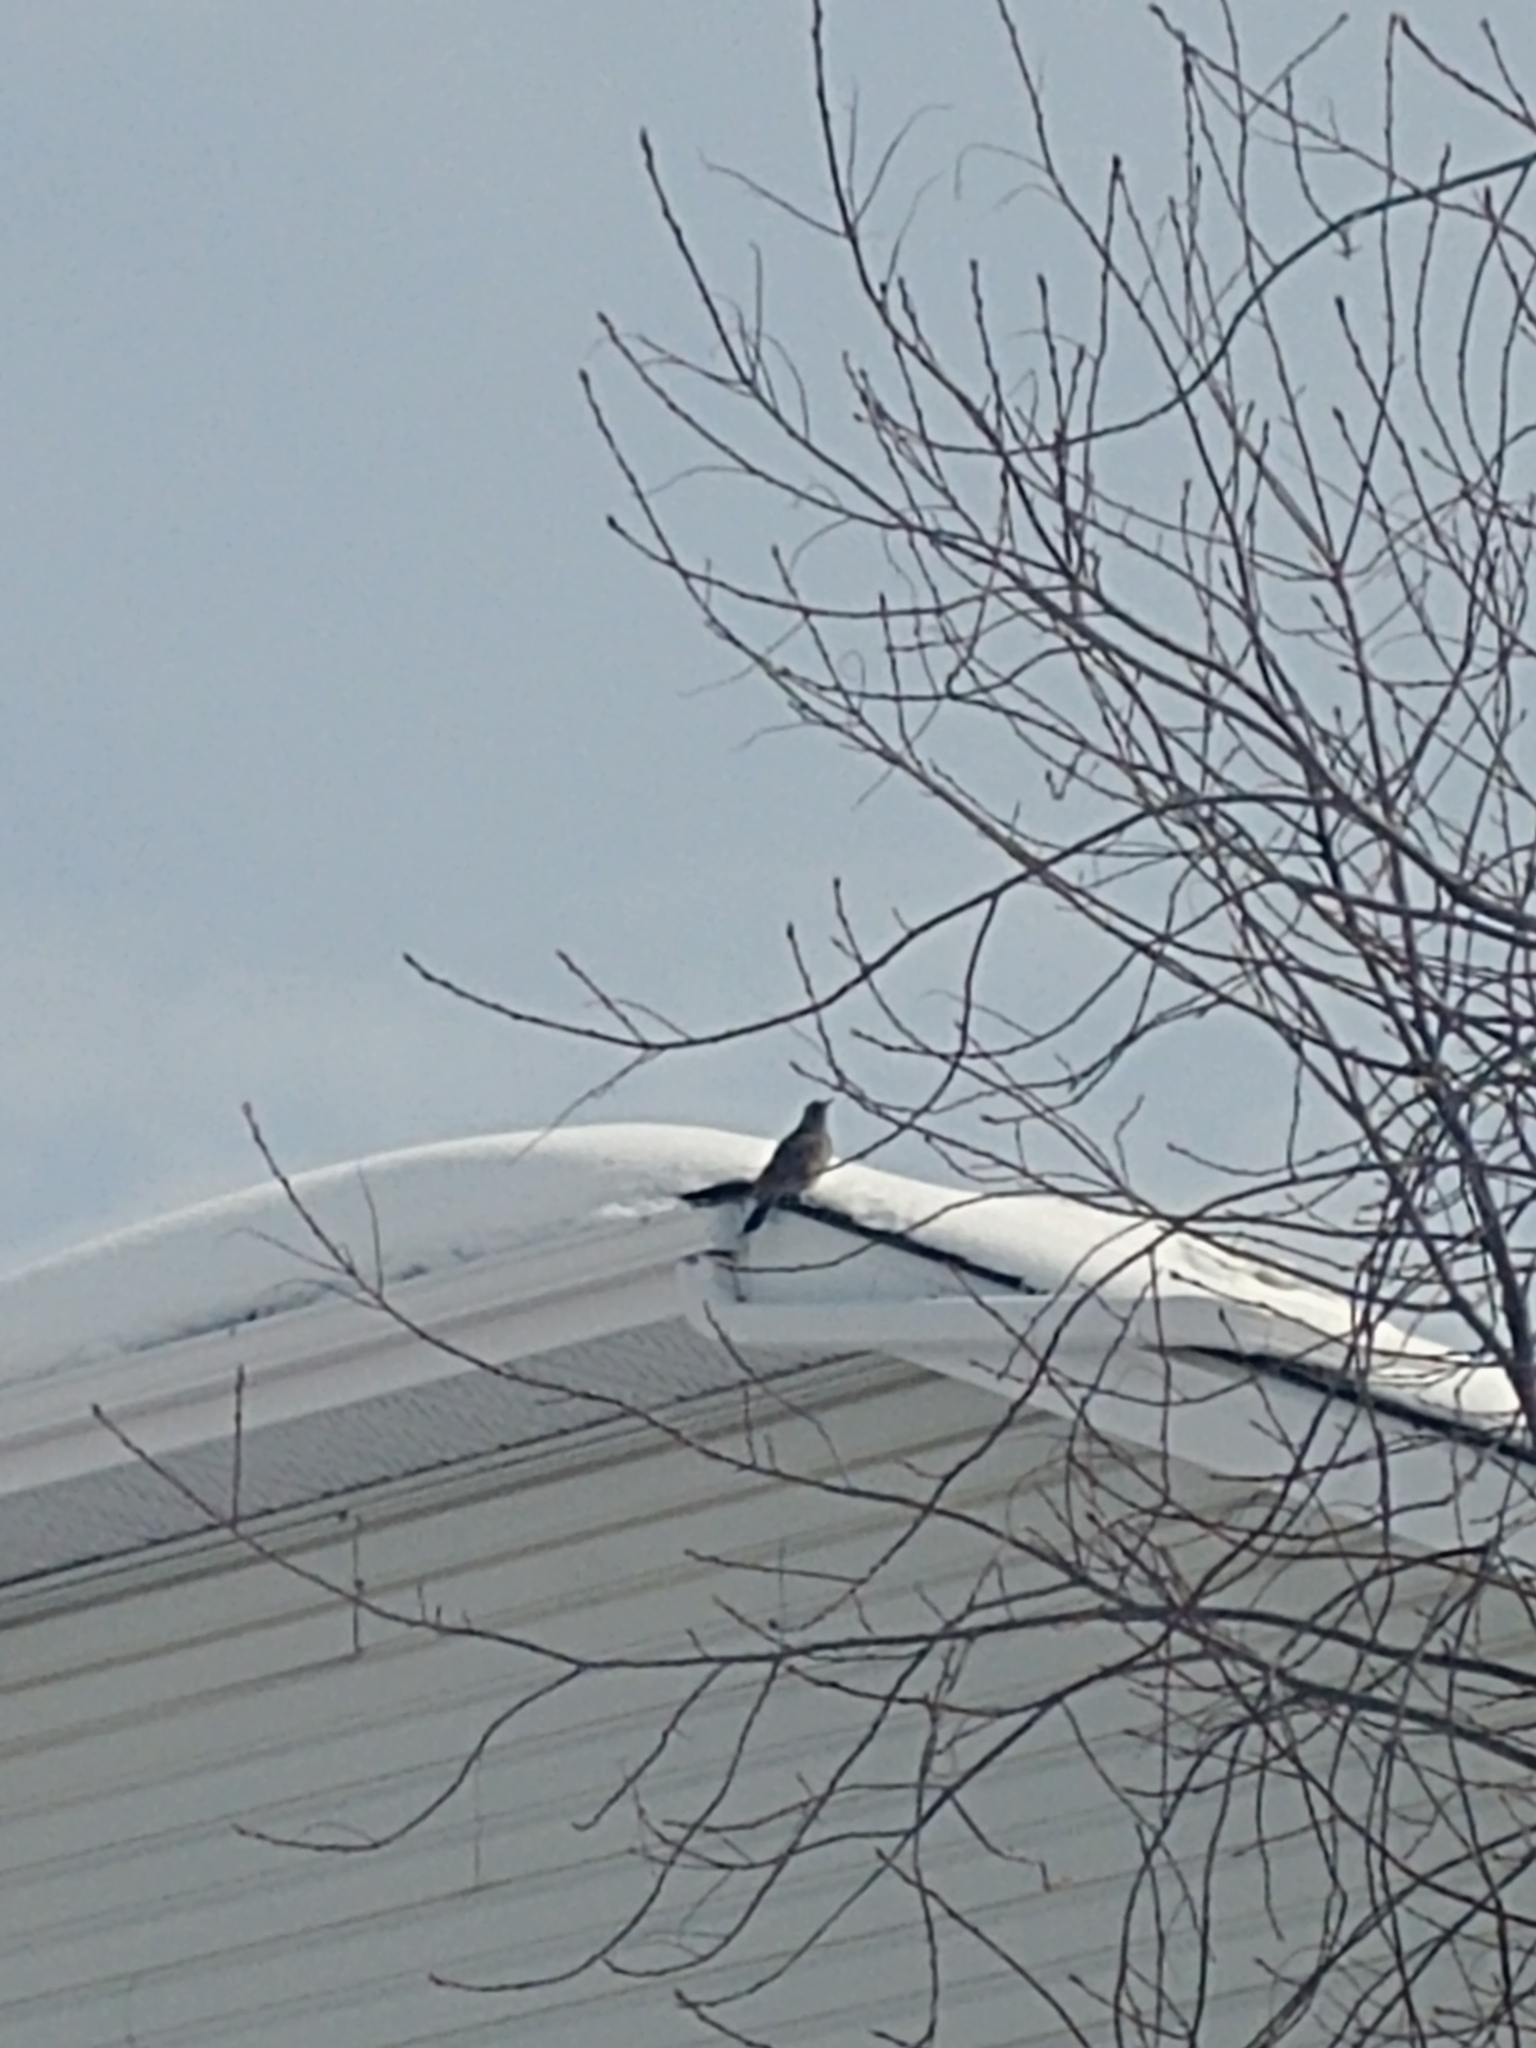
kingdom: Animalia
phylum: Chordata
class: Aves
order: Piciformes
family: Picidae
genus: Colaptes
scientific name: Colaptes auratus
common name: Northern flicker
